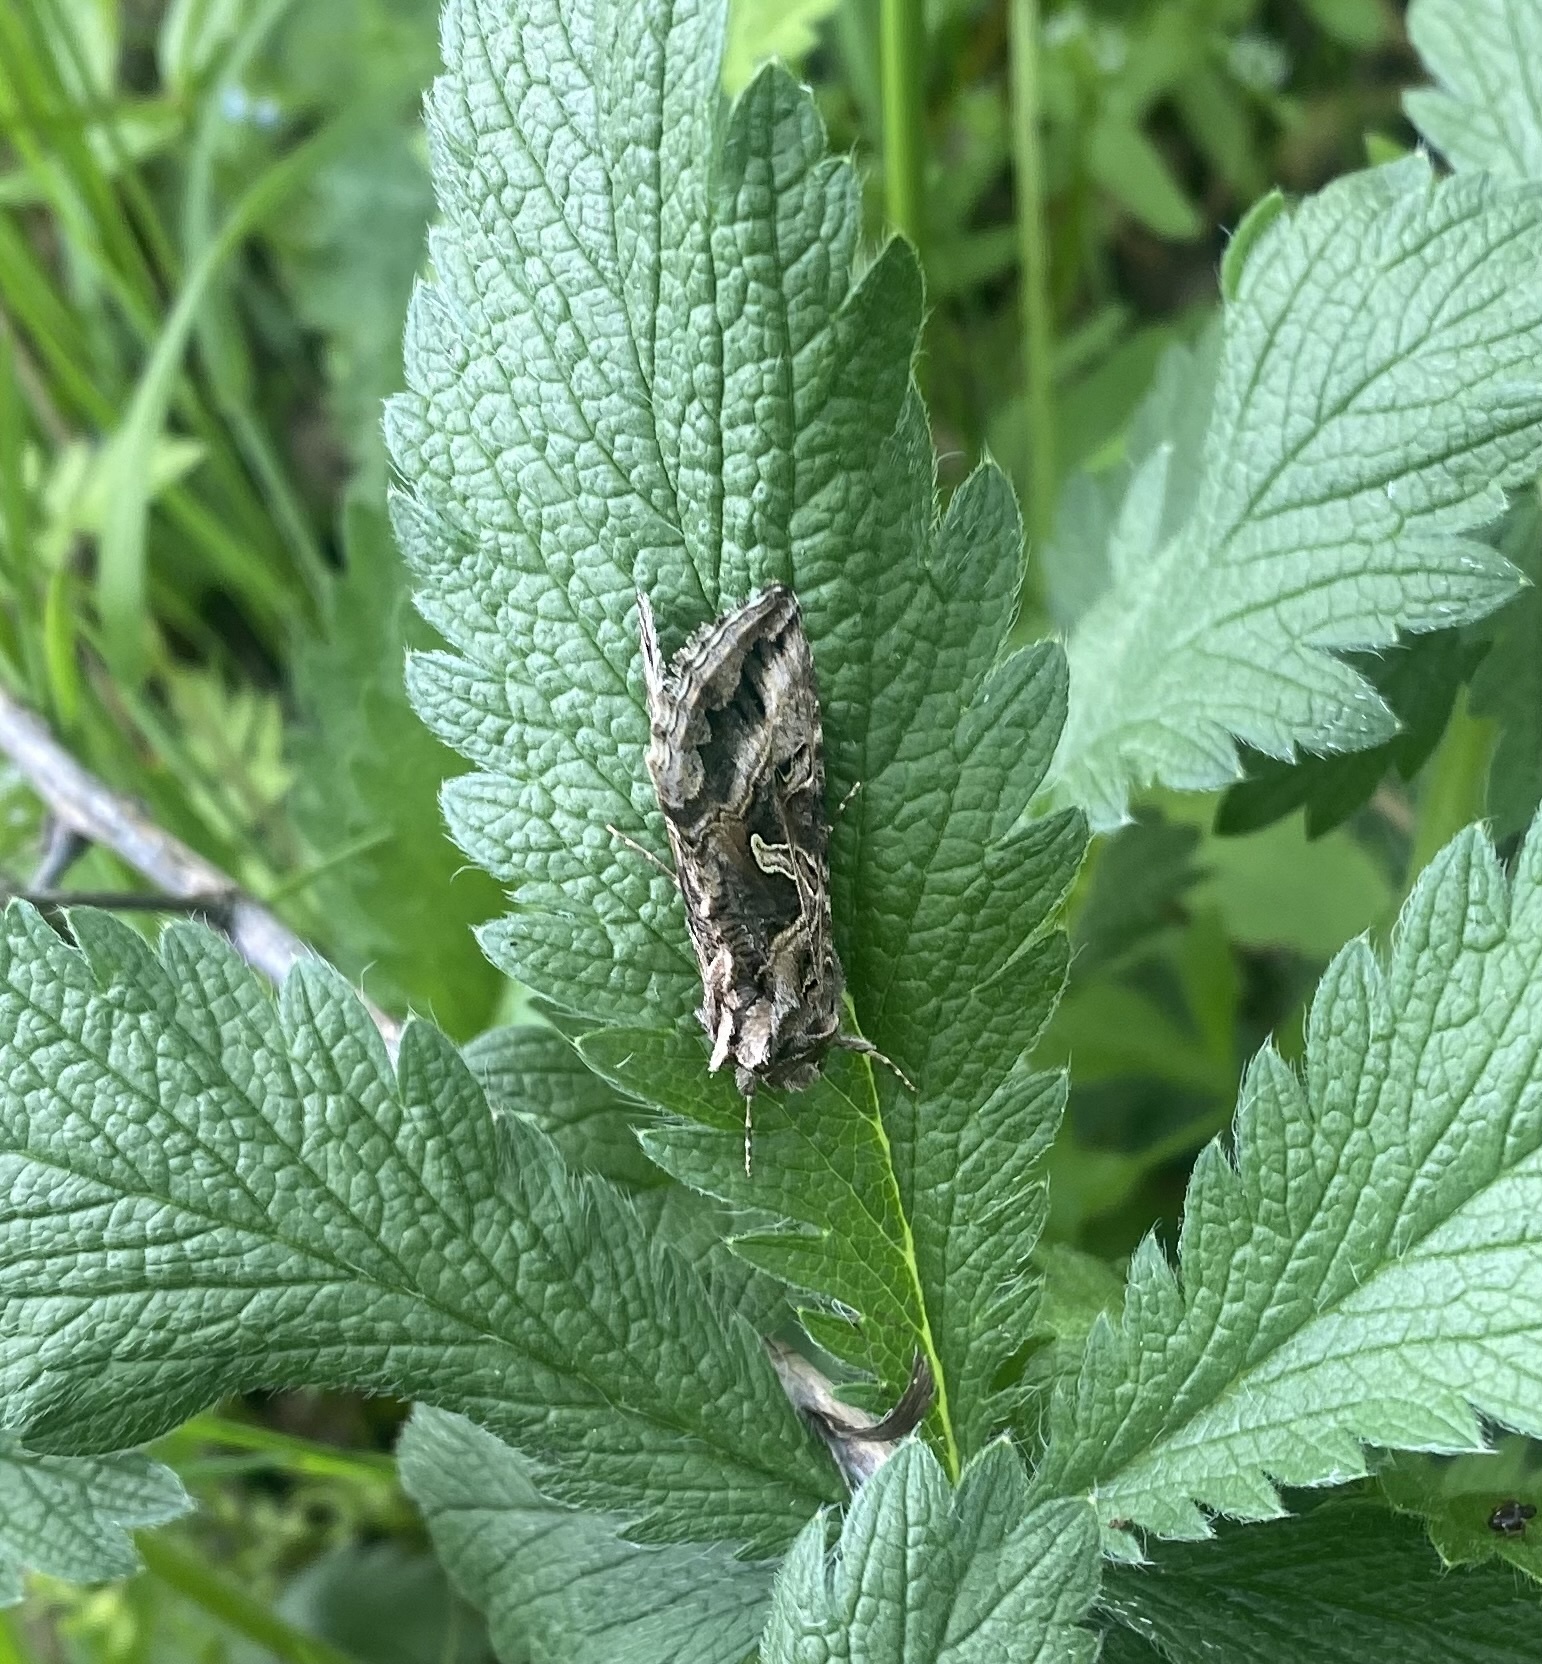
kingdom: Animalia
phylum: Arthropoda
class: Insecta
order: Lepidoptera
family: Noctuidae
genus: Cornutiplusia
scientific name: Cornutiplusia circumflexa
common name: Yorkshire y
